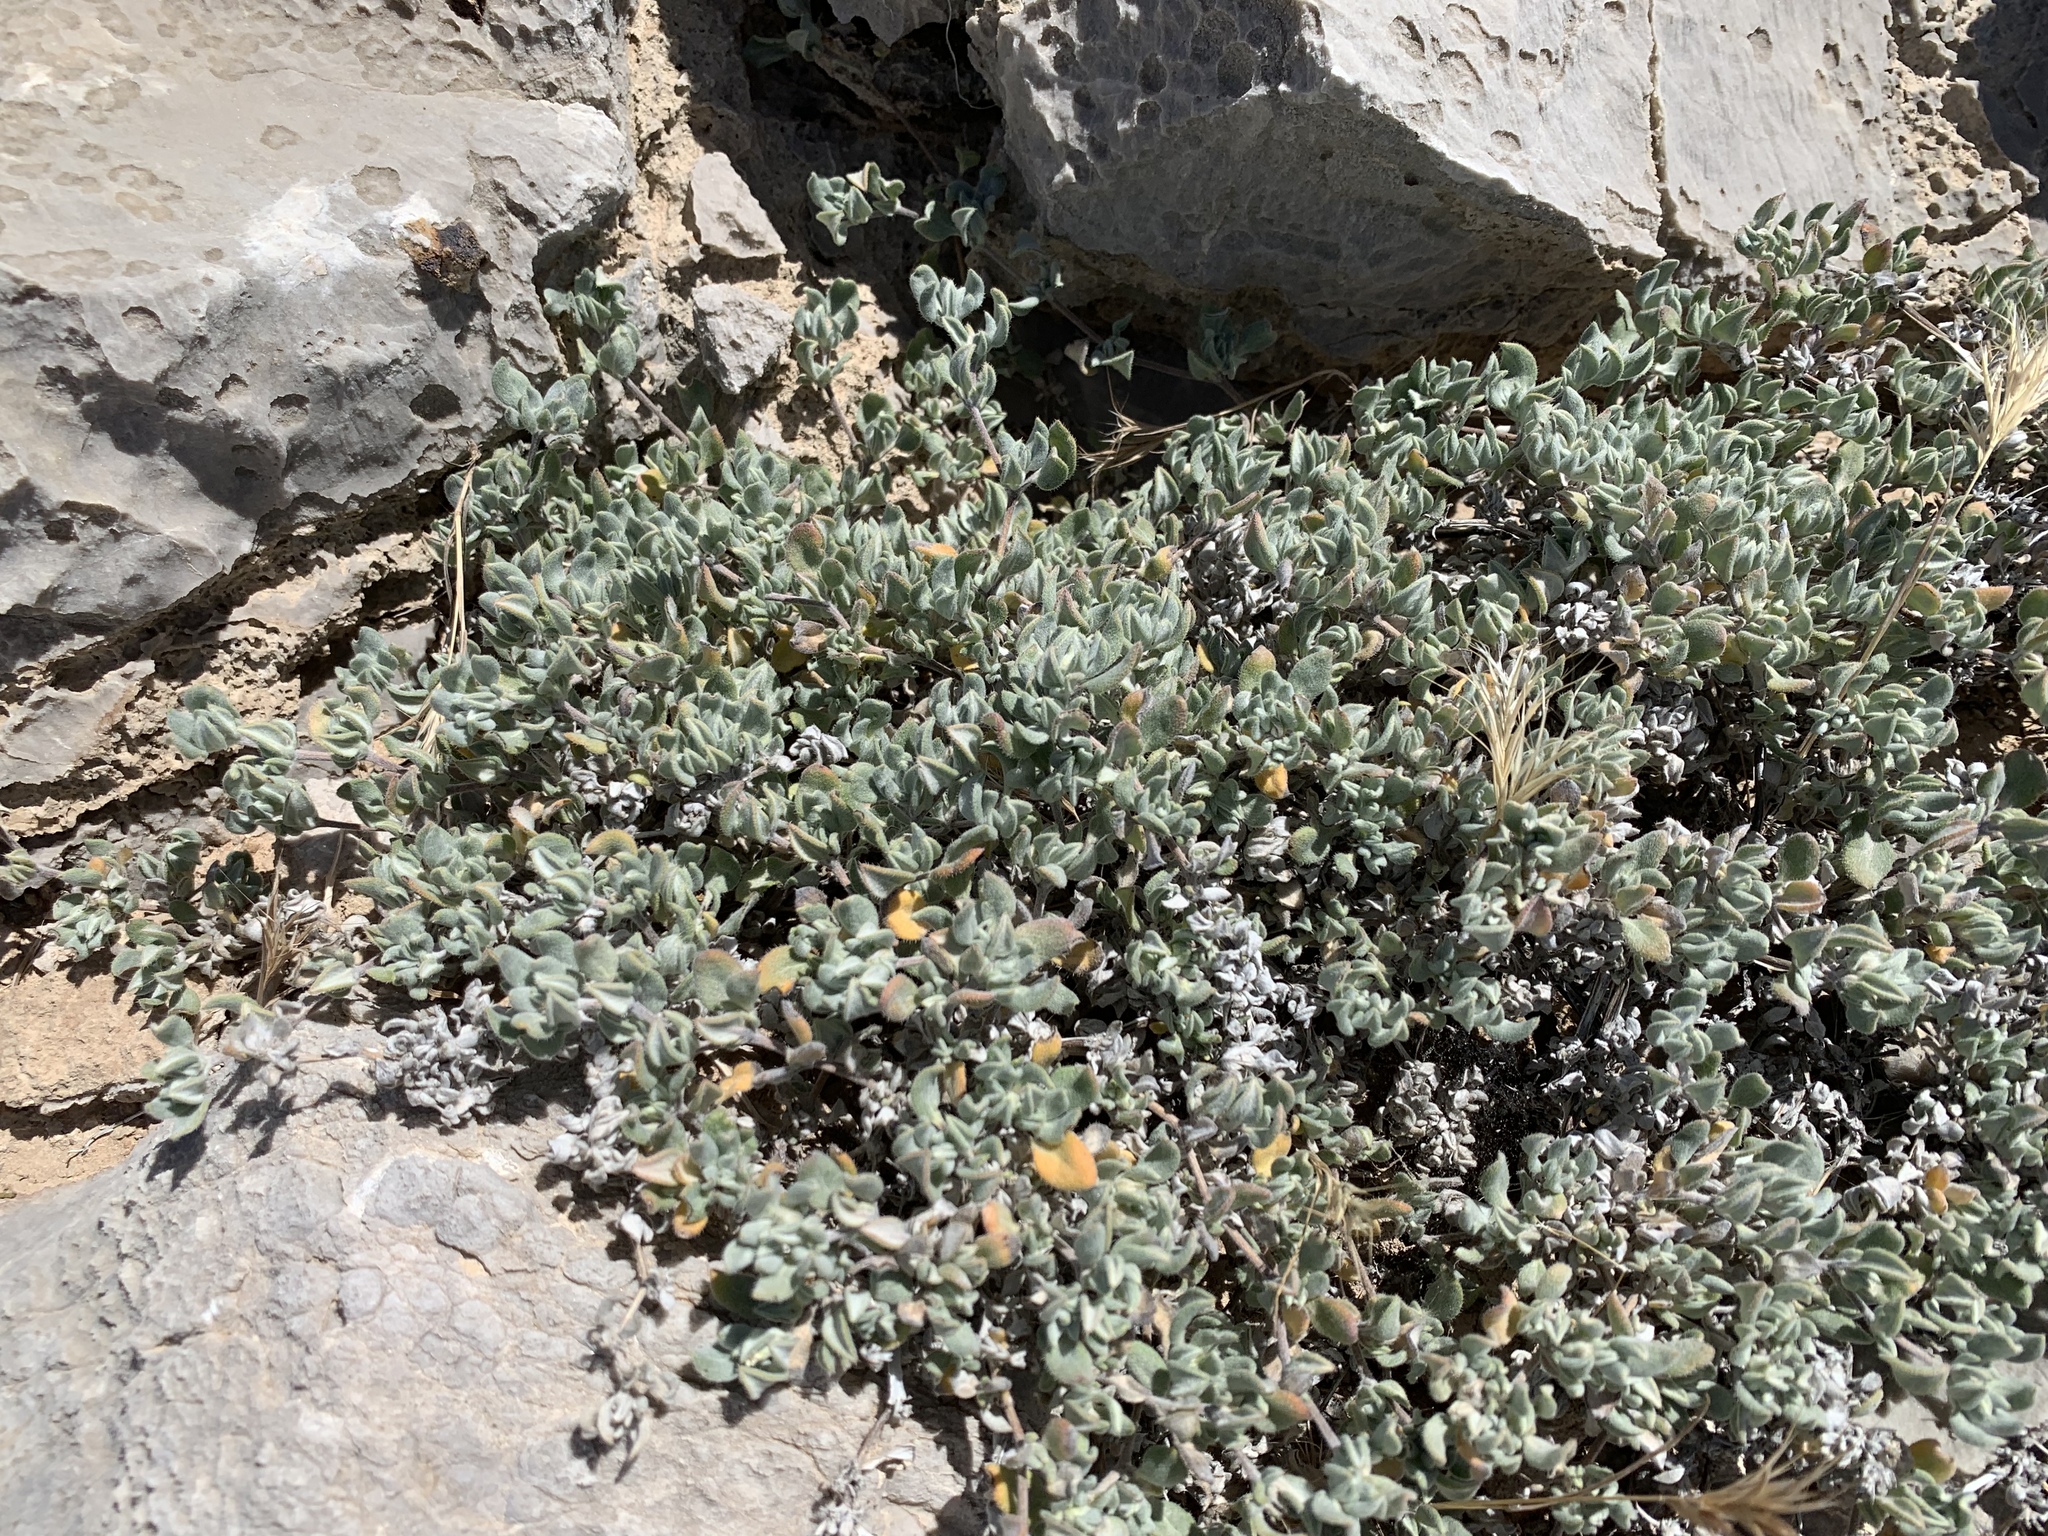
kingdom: Plantae
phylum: Tracheophyta
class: Magnoliopsida
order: Boraginales
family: Ehretiaceae
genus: Tiquilia
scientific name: Tiquilia canescens
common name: Hairy tiquilia
